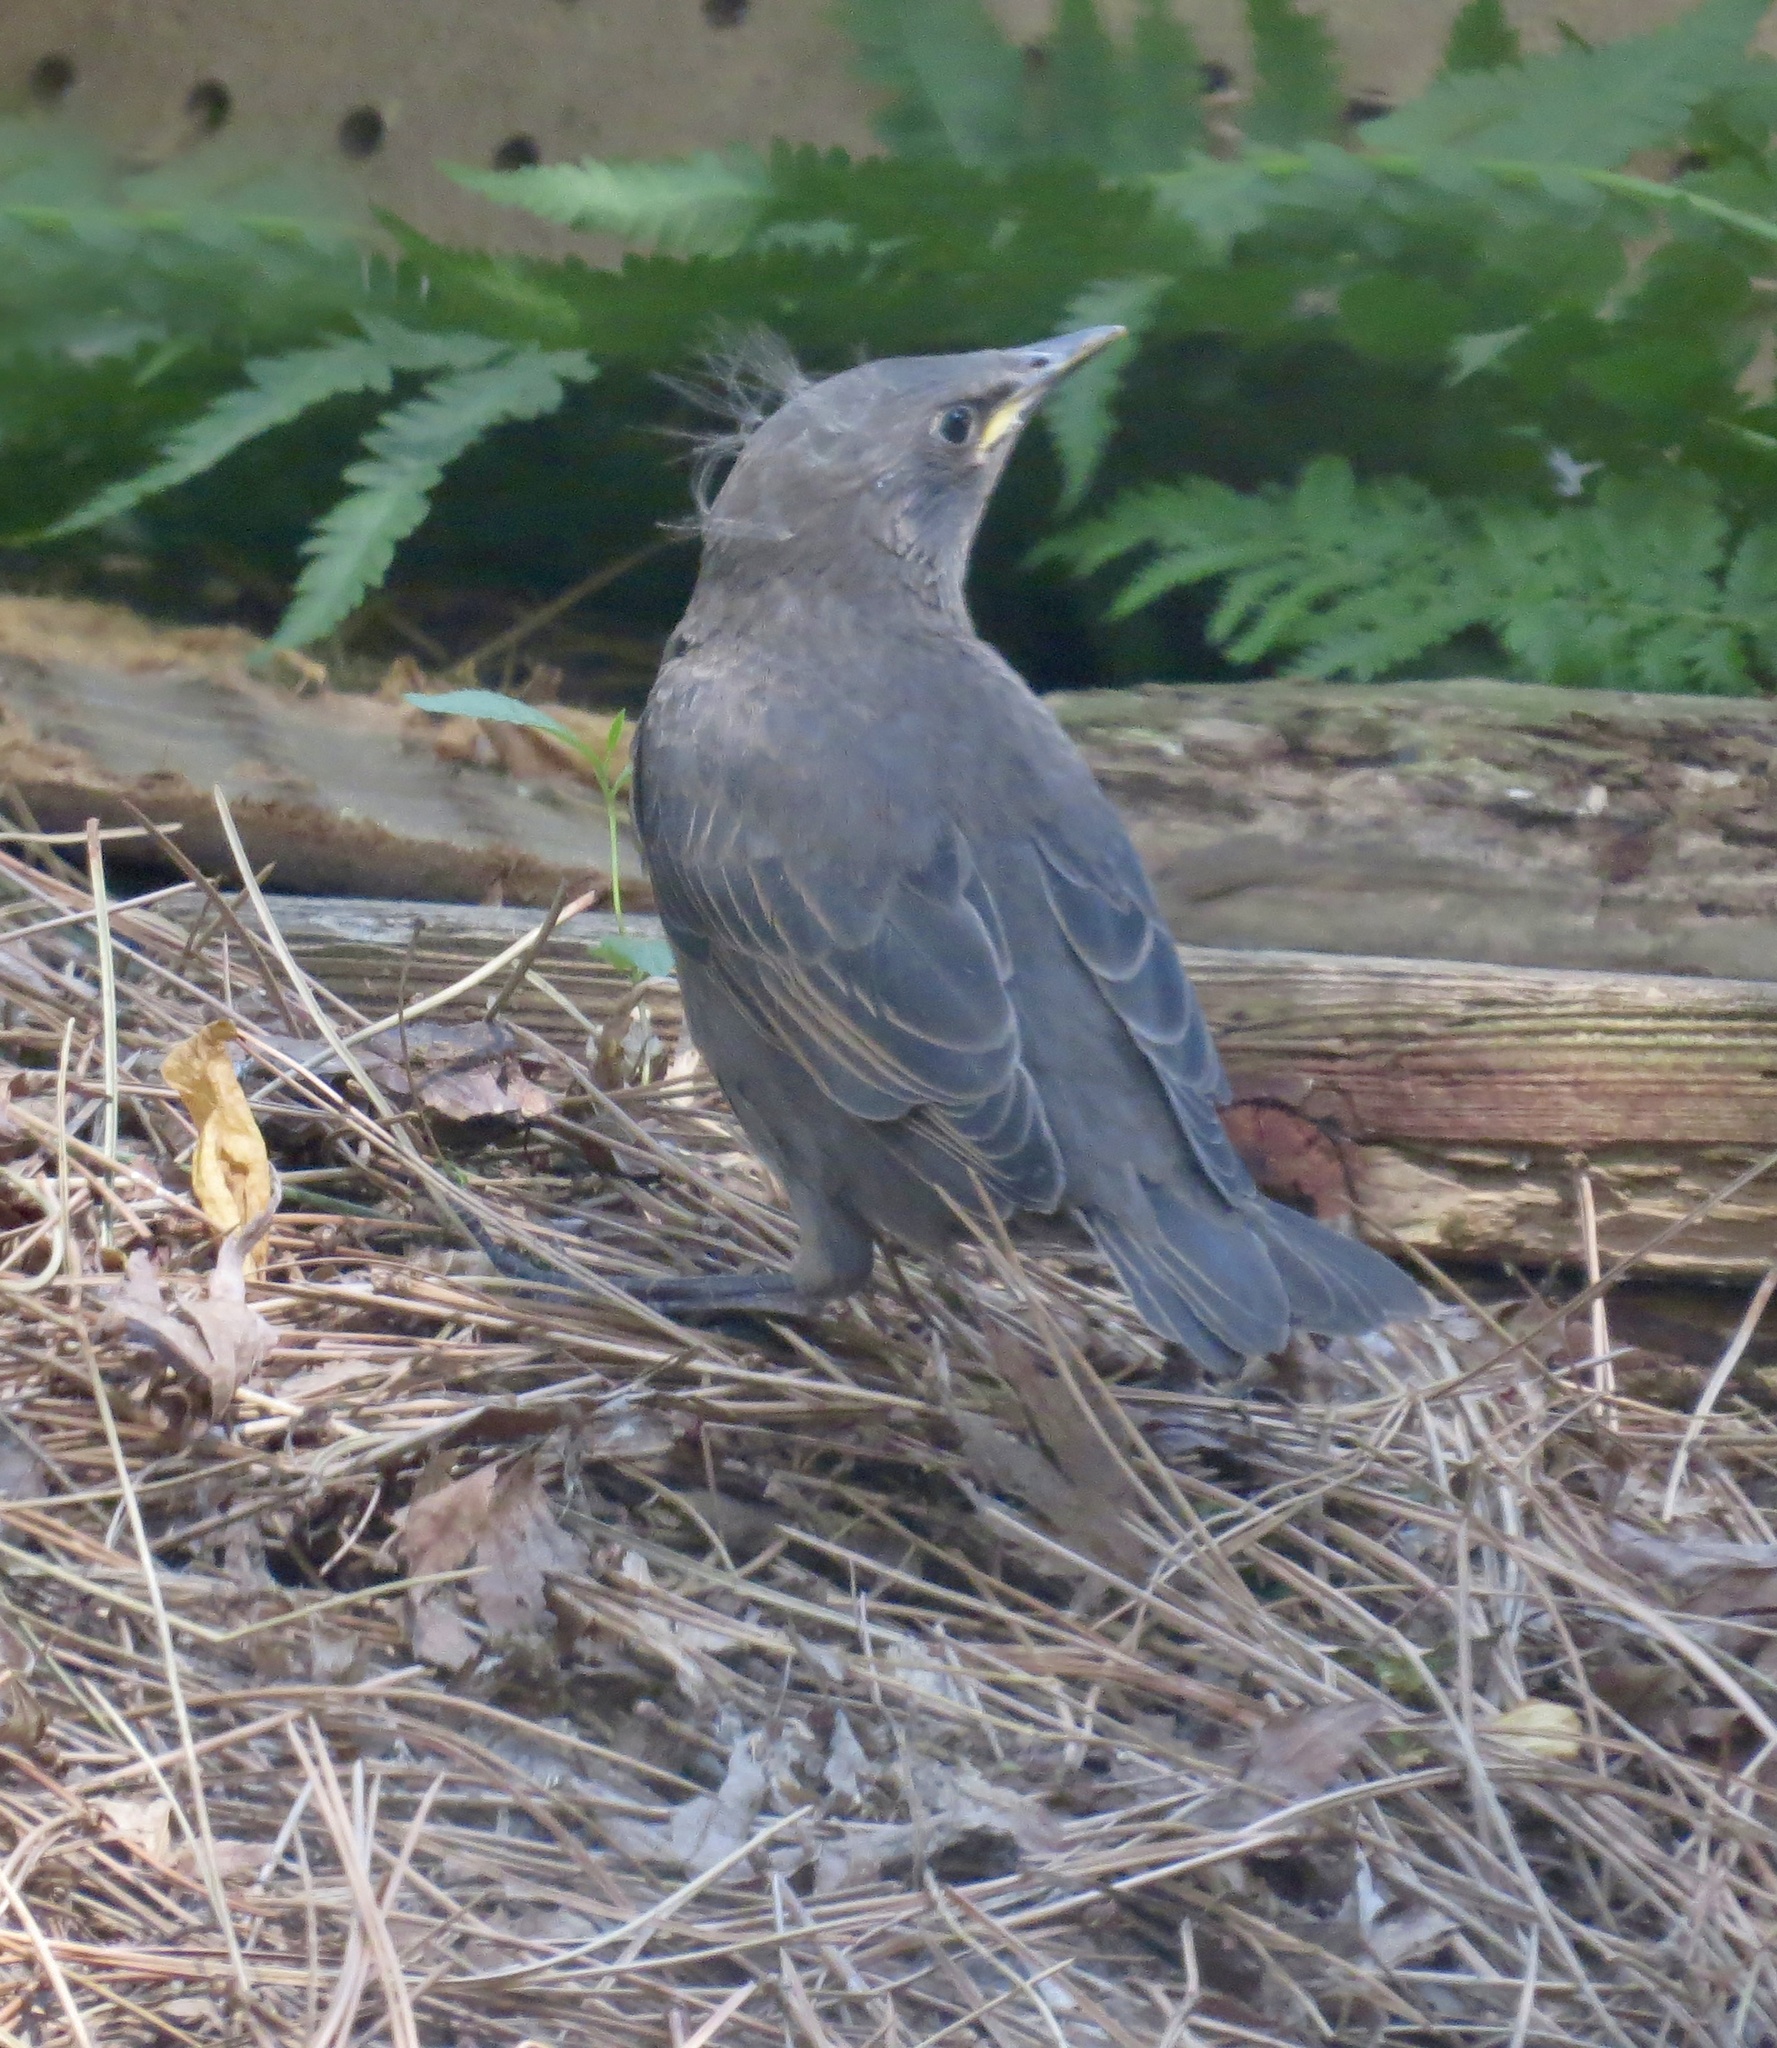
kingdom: Animalia
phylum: Chordata
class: Aves
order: Passeriformes
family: Sturnidae
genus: Sturnus
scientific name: Sturnus vulgaris
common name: Common starling
